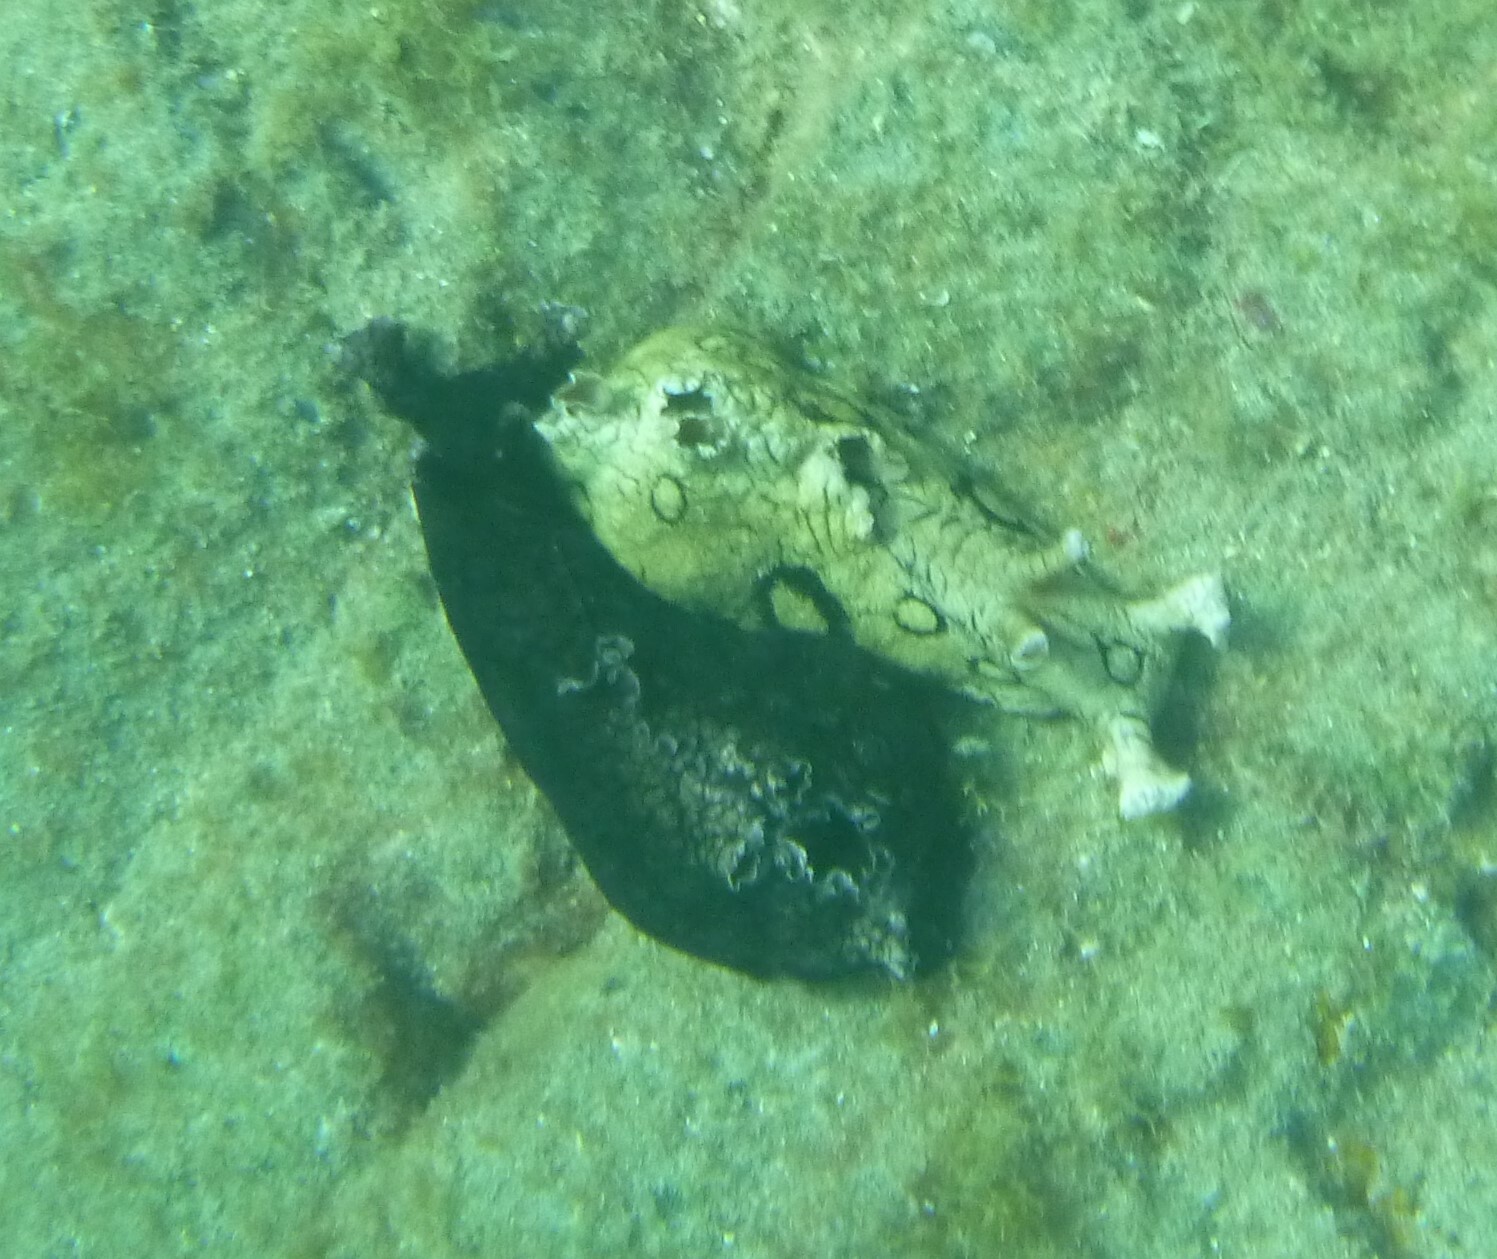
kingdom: Animalia
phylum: Mollusca
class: Gastropoda
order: Aplysiida
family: Aplysiidae
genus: Aplysia
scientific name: Aplysia dactylomela
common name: Large-spotted sea hare
